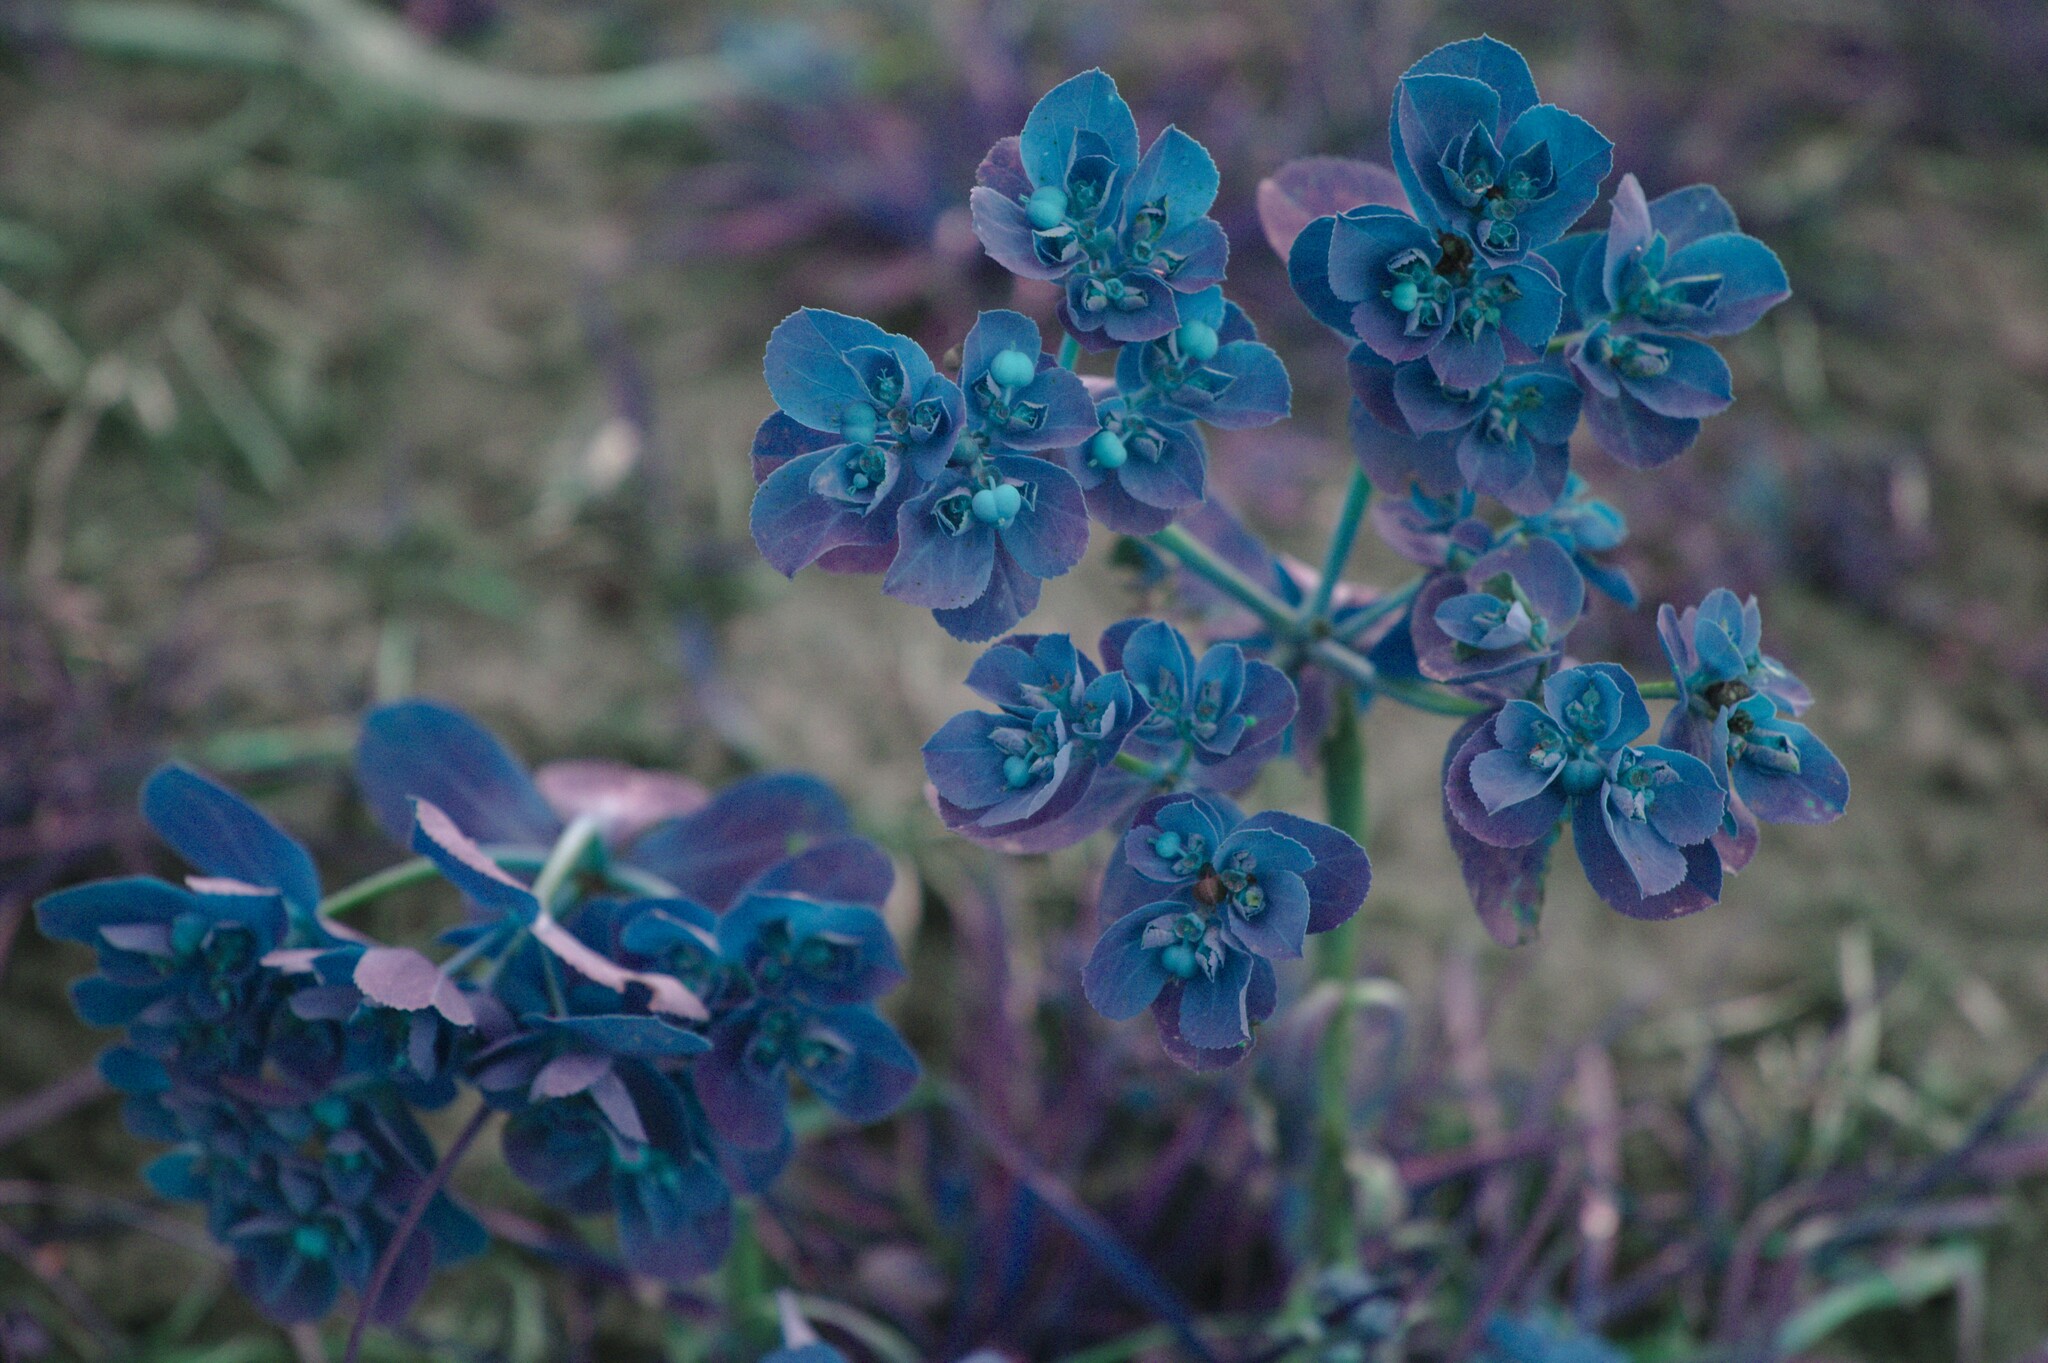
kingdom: Plantae
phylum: Tracheophyta
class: Magnoliopsida
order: Malpighiales
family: Euphorbiaceae
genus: Euphorbia
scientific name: Euphorbia helioscopia
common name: Sun spurge
